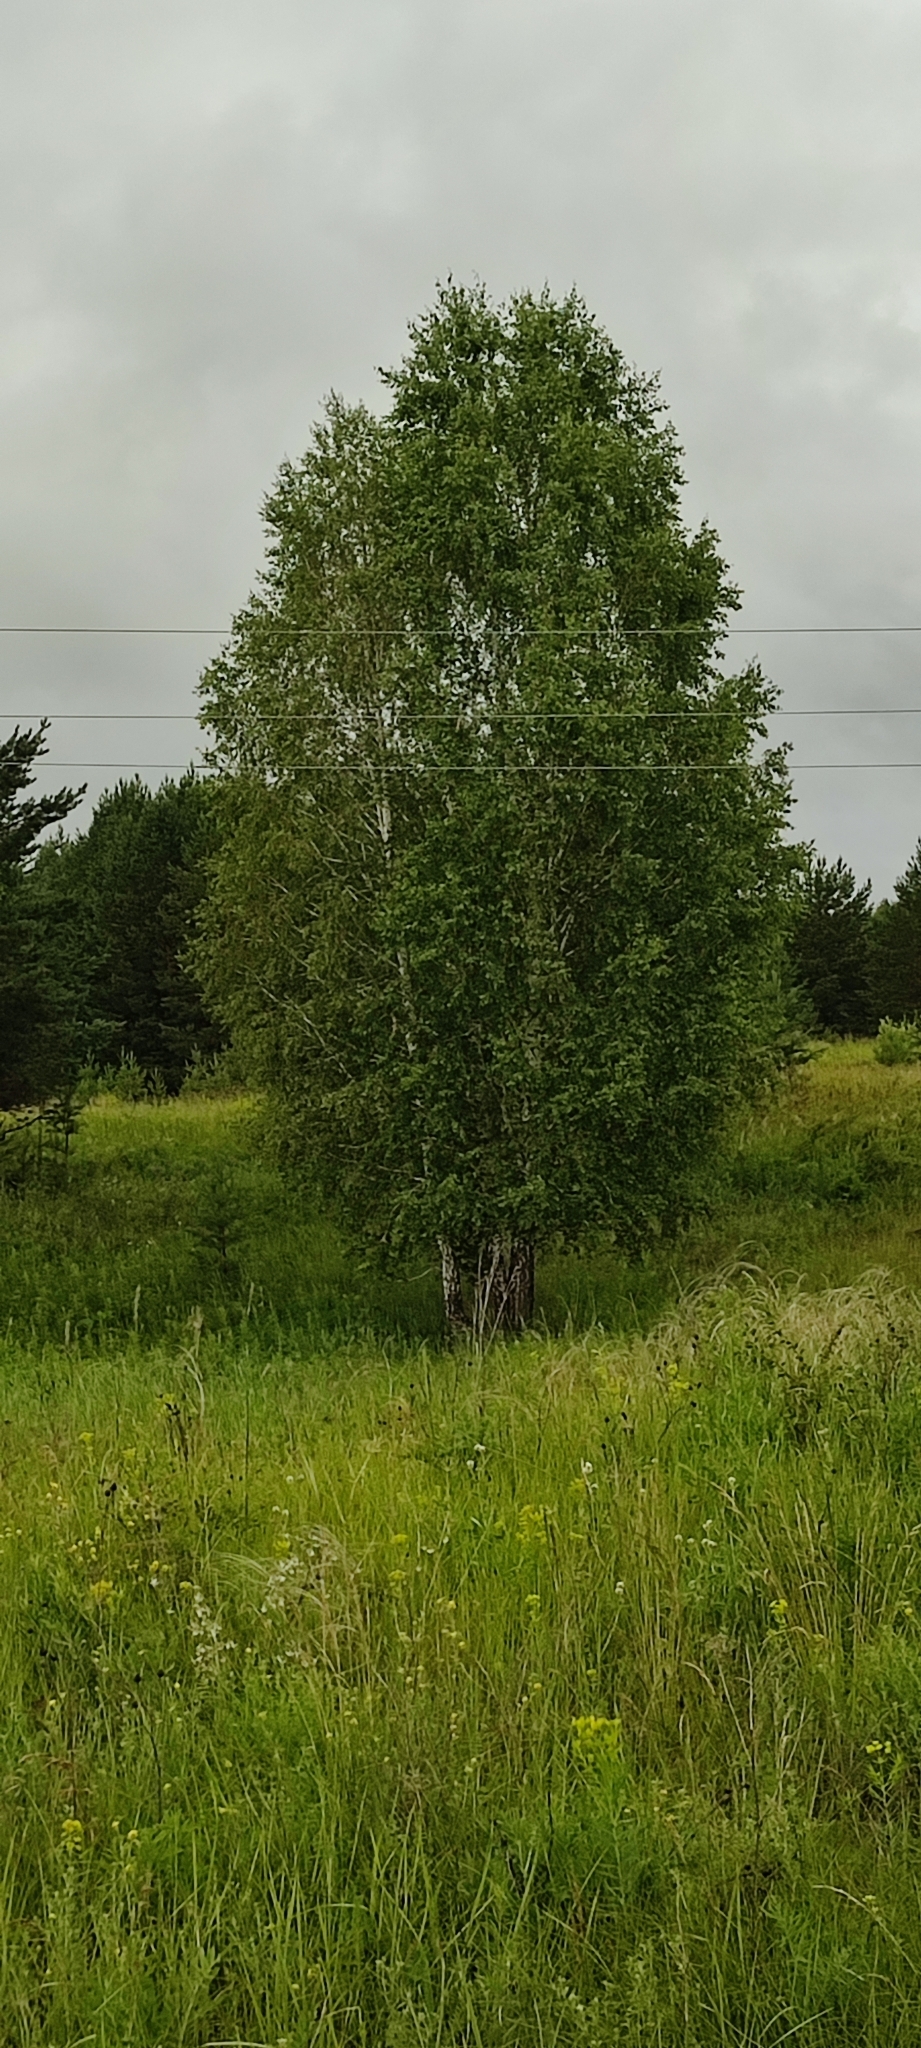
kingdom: Plantae
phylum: Tracheophyta
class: Magnoliopsida
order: Fagales
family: Betulaceae
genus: Betula
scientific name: Betula pendula
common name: Silver birch
